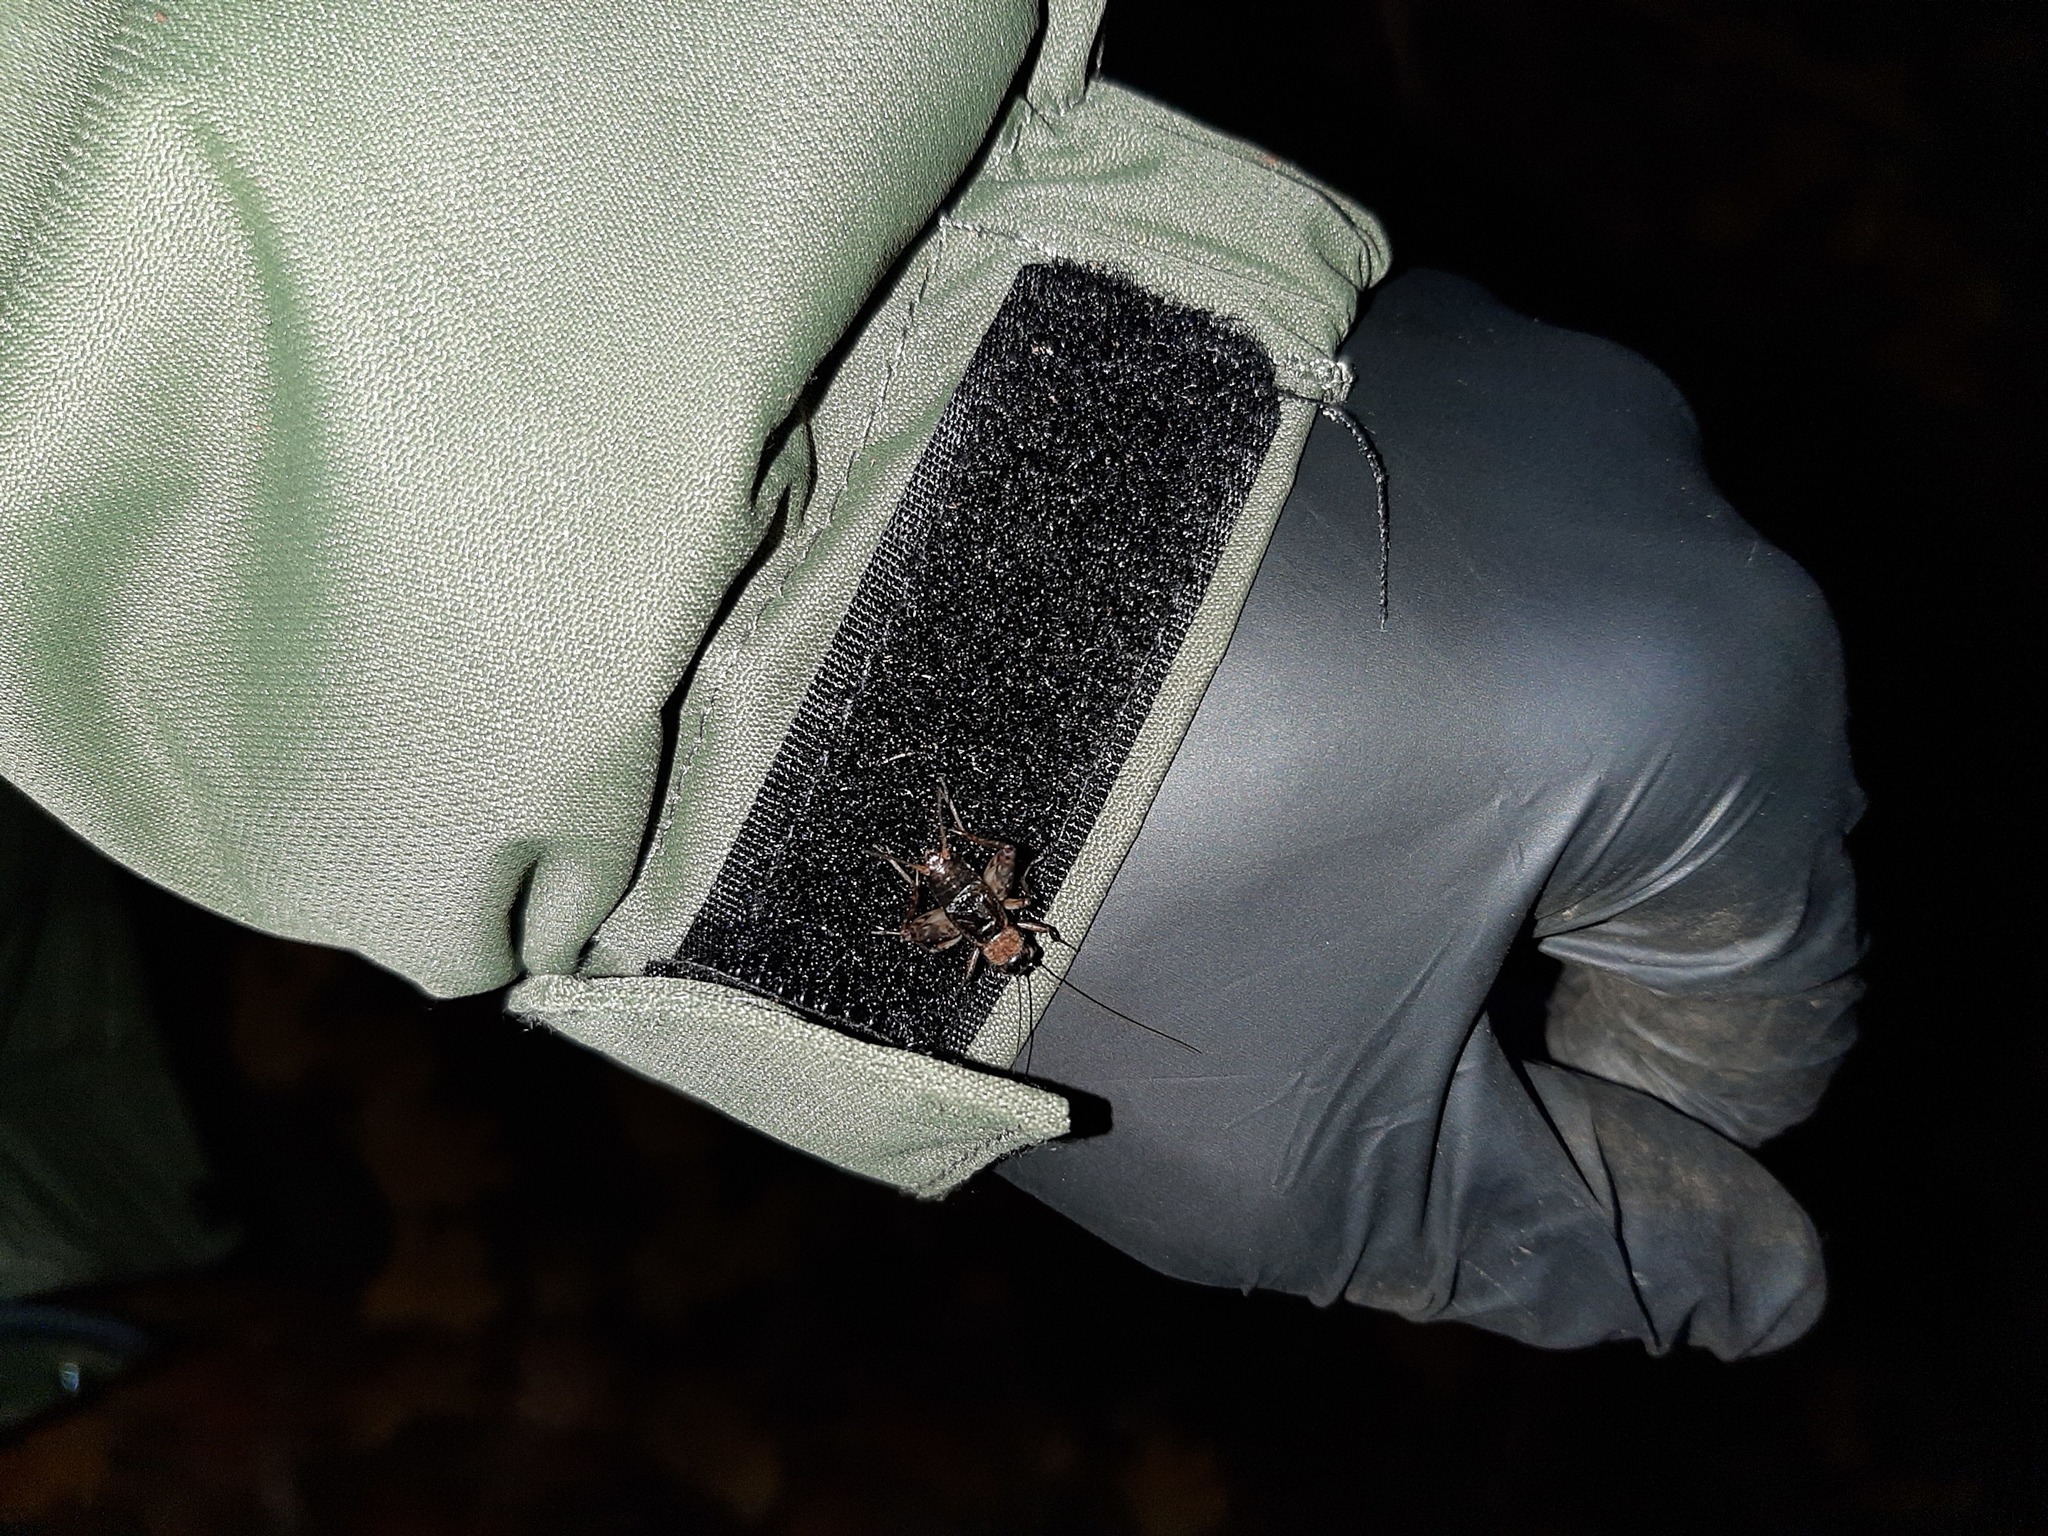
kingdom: Animalia
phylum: Arthropoda
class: Insecta
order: Orthoptera
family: Trigonidiidae
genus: Nemobius
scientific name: Nemobius sylvestris
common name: Wood-cricket
